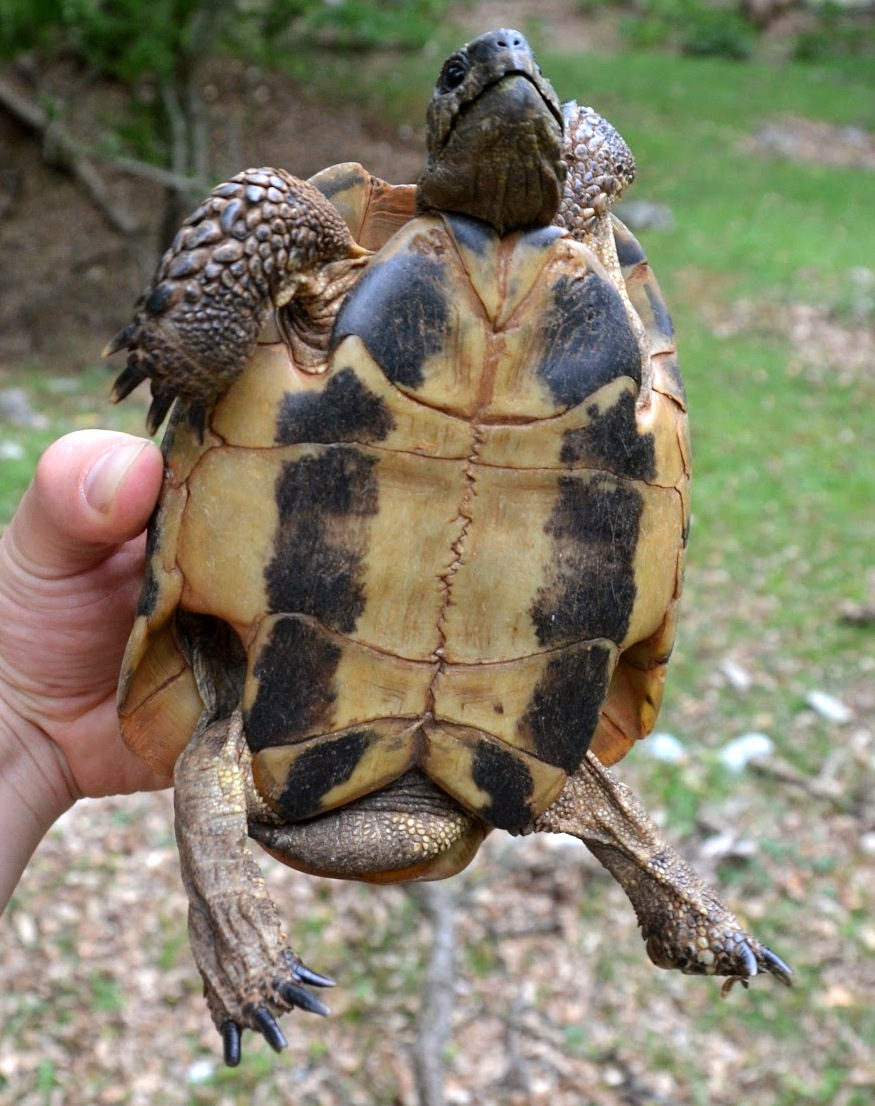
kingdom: Animalia
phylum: Chordata
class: Testudines
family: Testudinidae
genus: Testudo
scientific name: Testudo hermanni
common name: Hermann's tortoise
